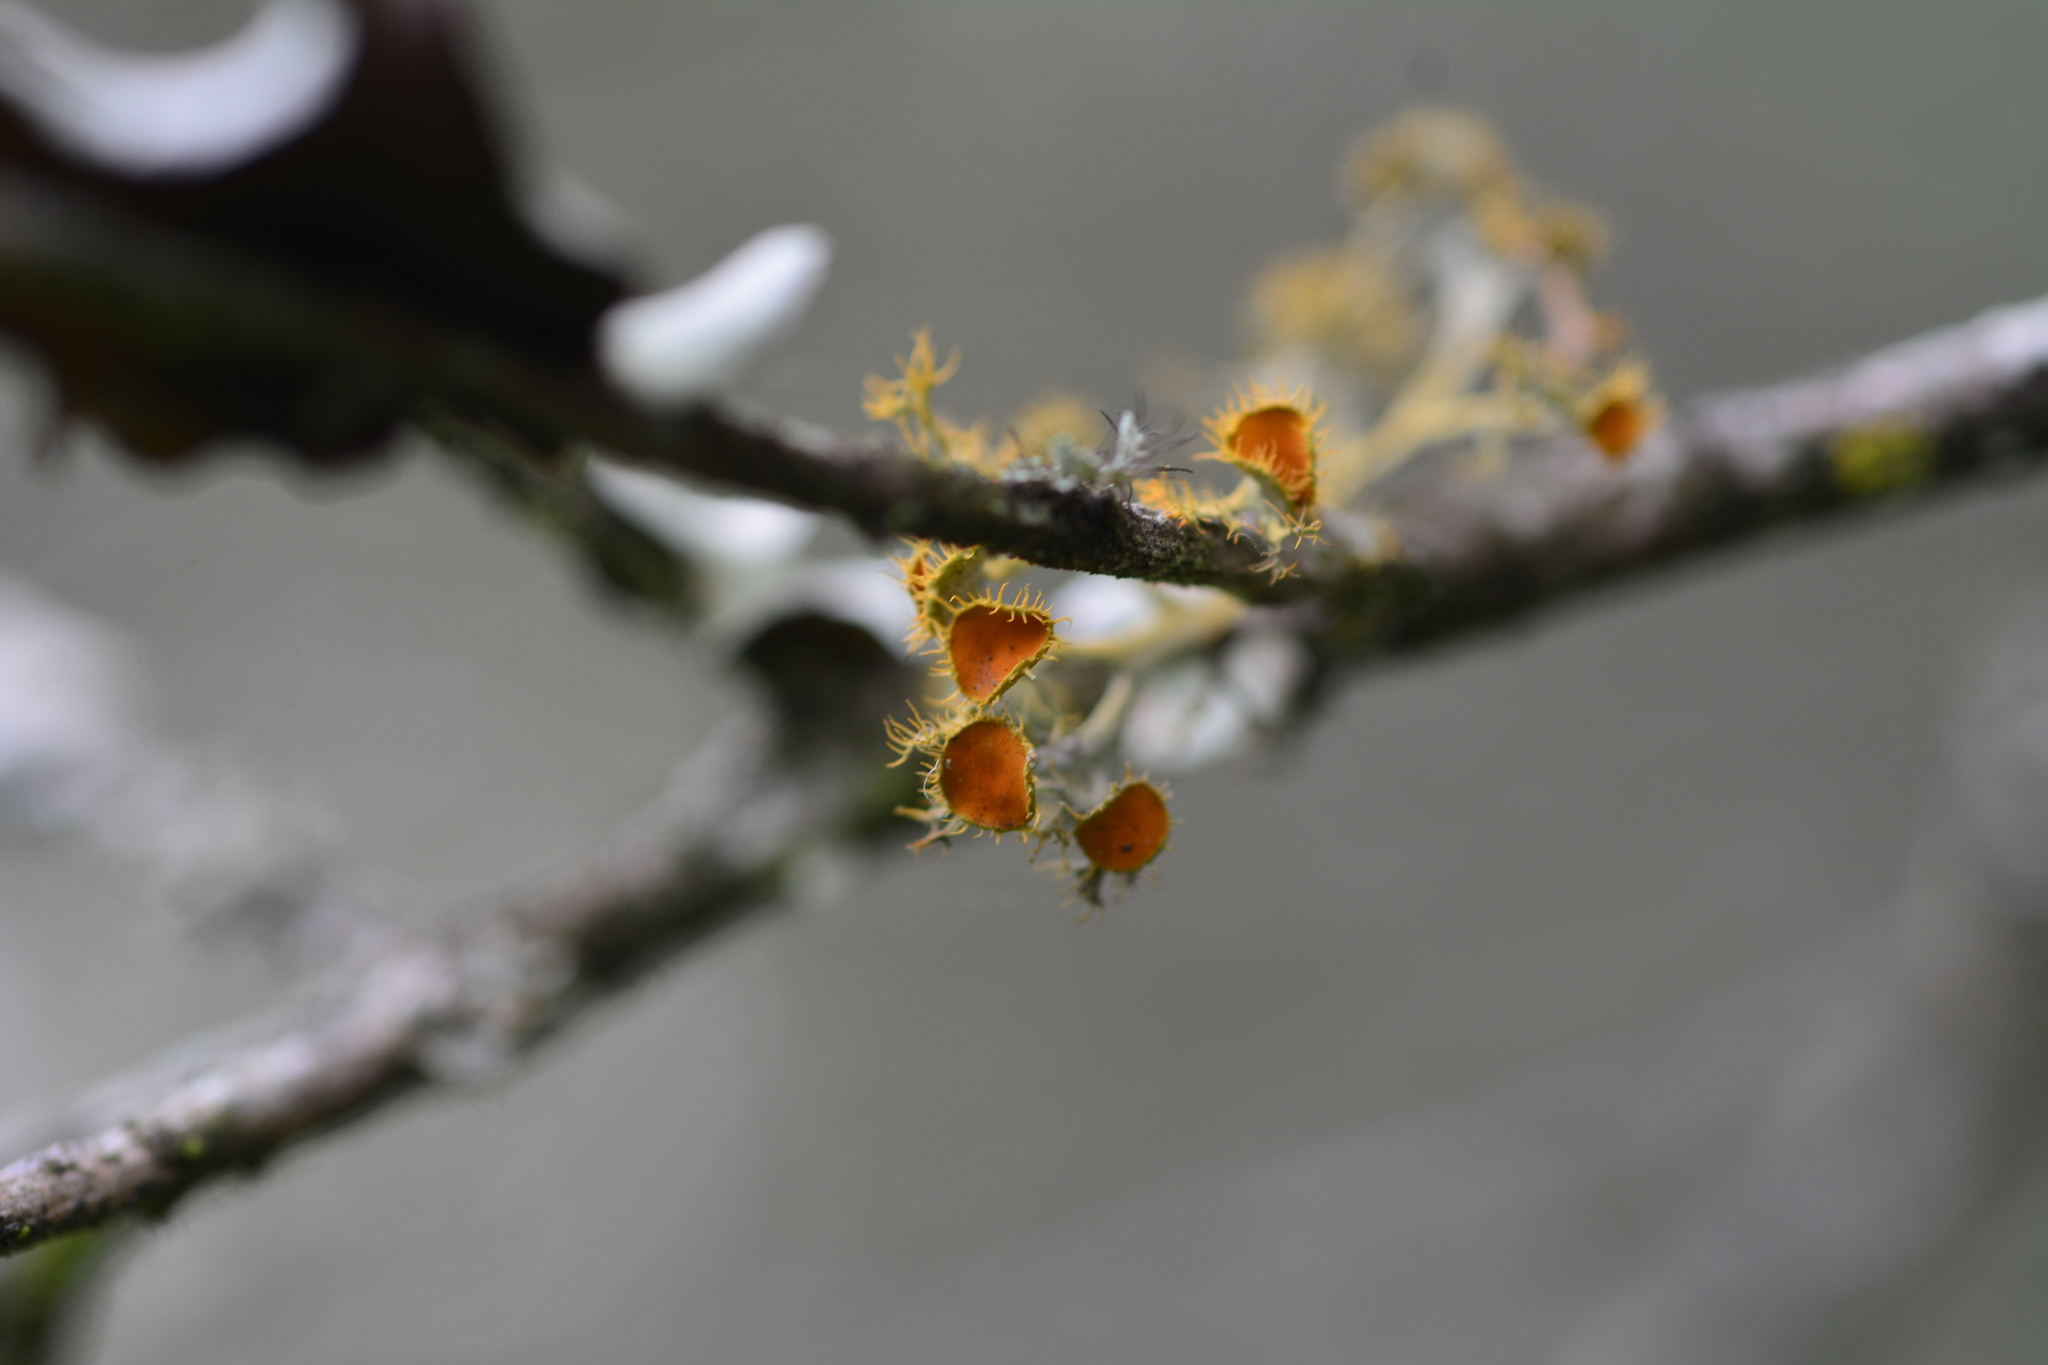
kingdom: Fungi
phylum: Ascomycota
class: Lecanoromycetes
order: Teloschistales
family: Teloschistaceae
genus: Niorma
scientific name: Niorma chrysophthalma
